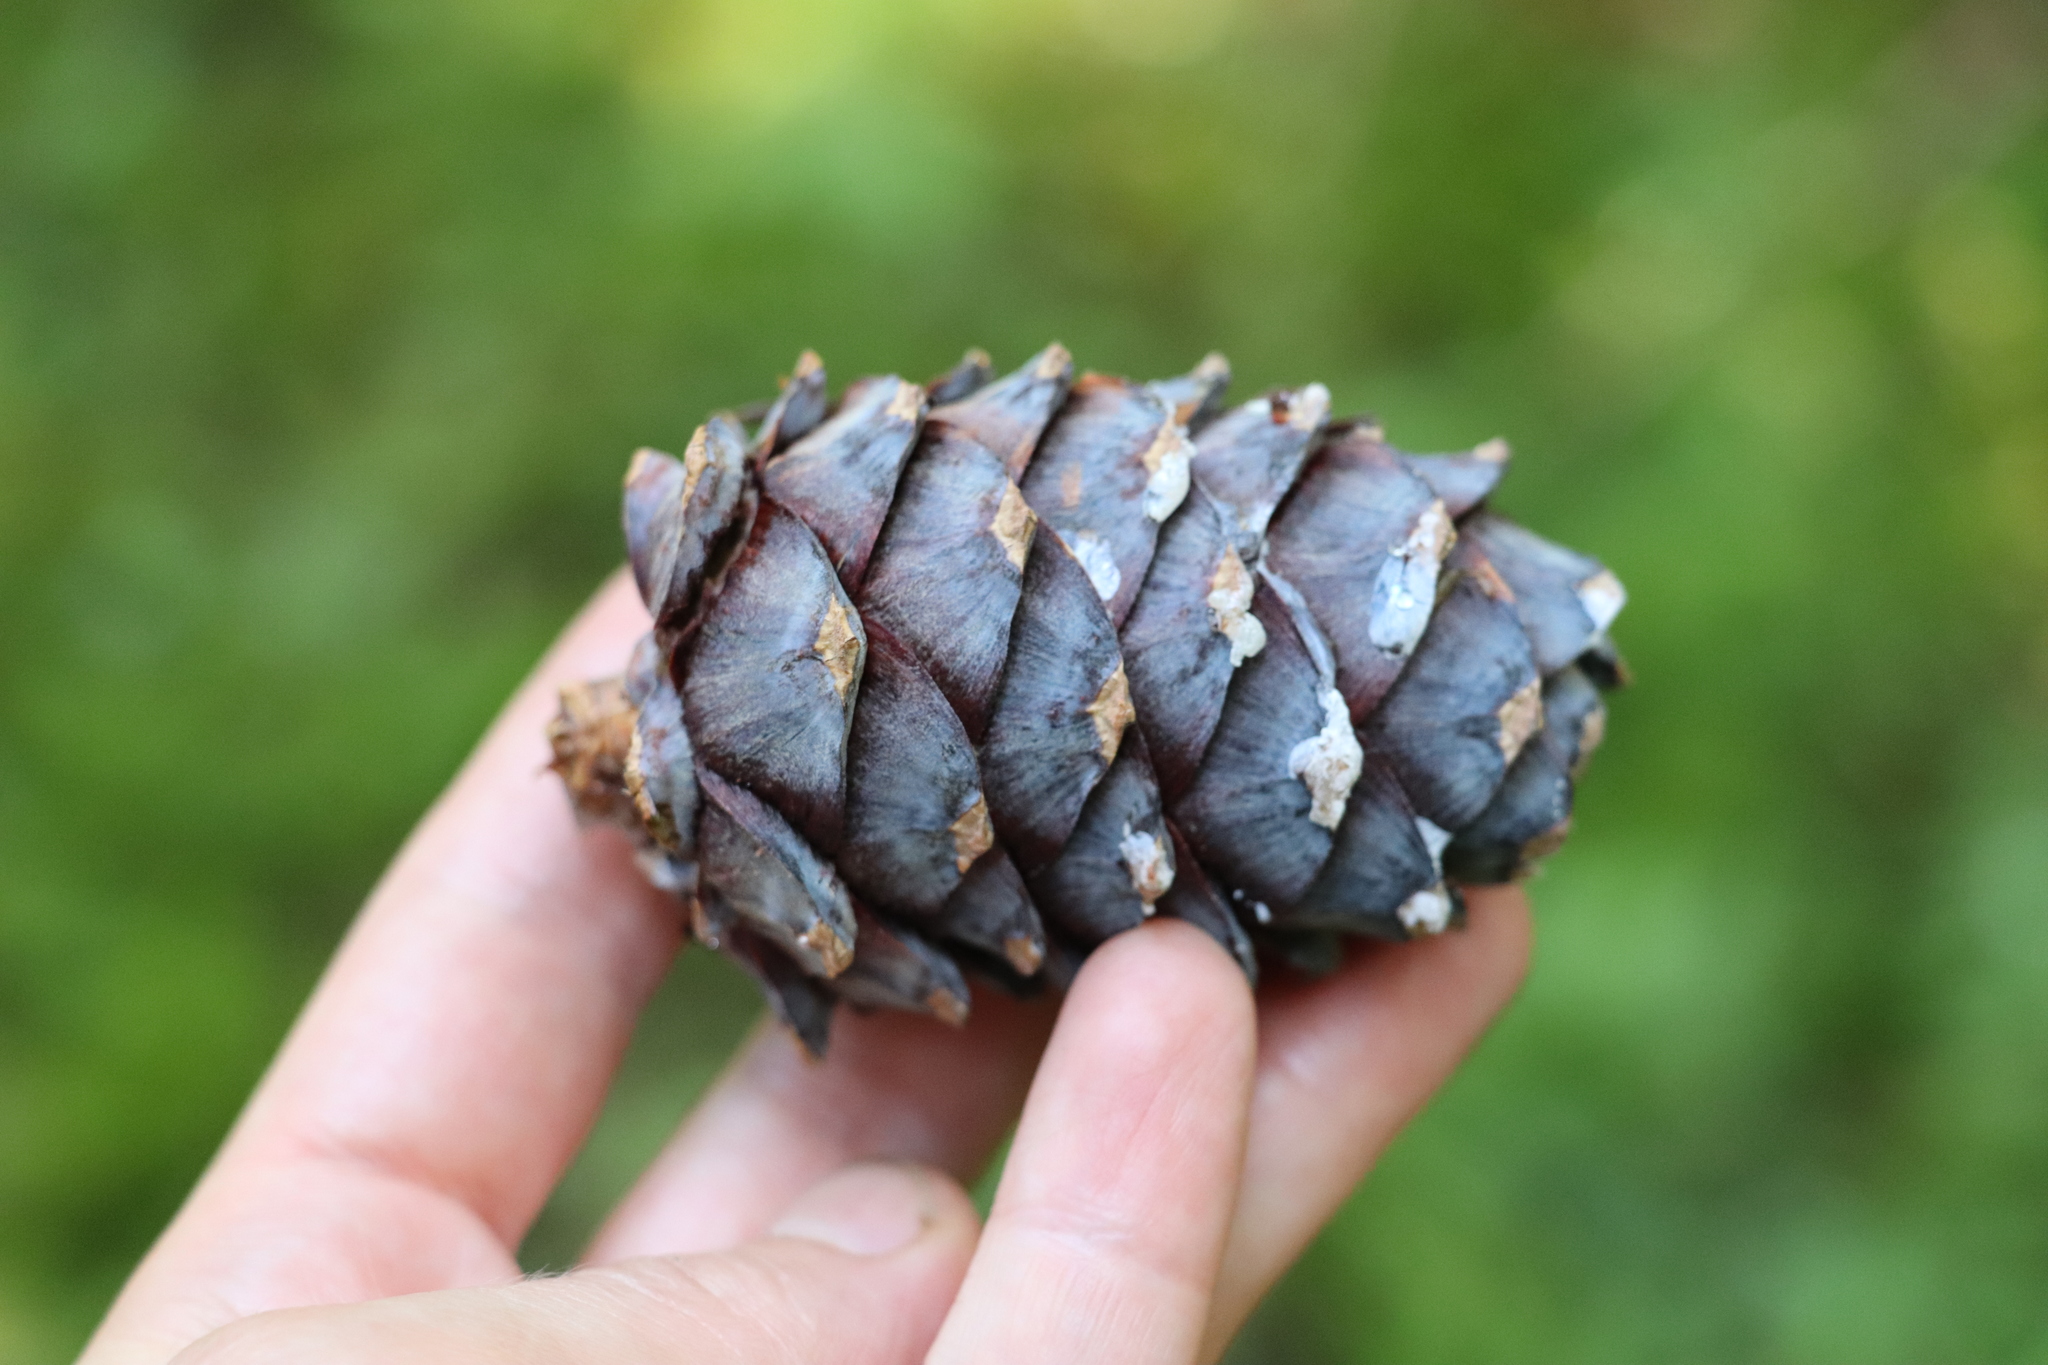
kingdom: Plantae
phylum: Tracheophyta
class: Pinopsida
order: Pinales
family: Pinaceae
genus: Pinus
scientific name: Pinus sibirica
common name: Siberian pine
